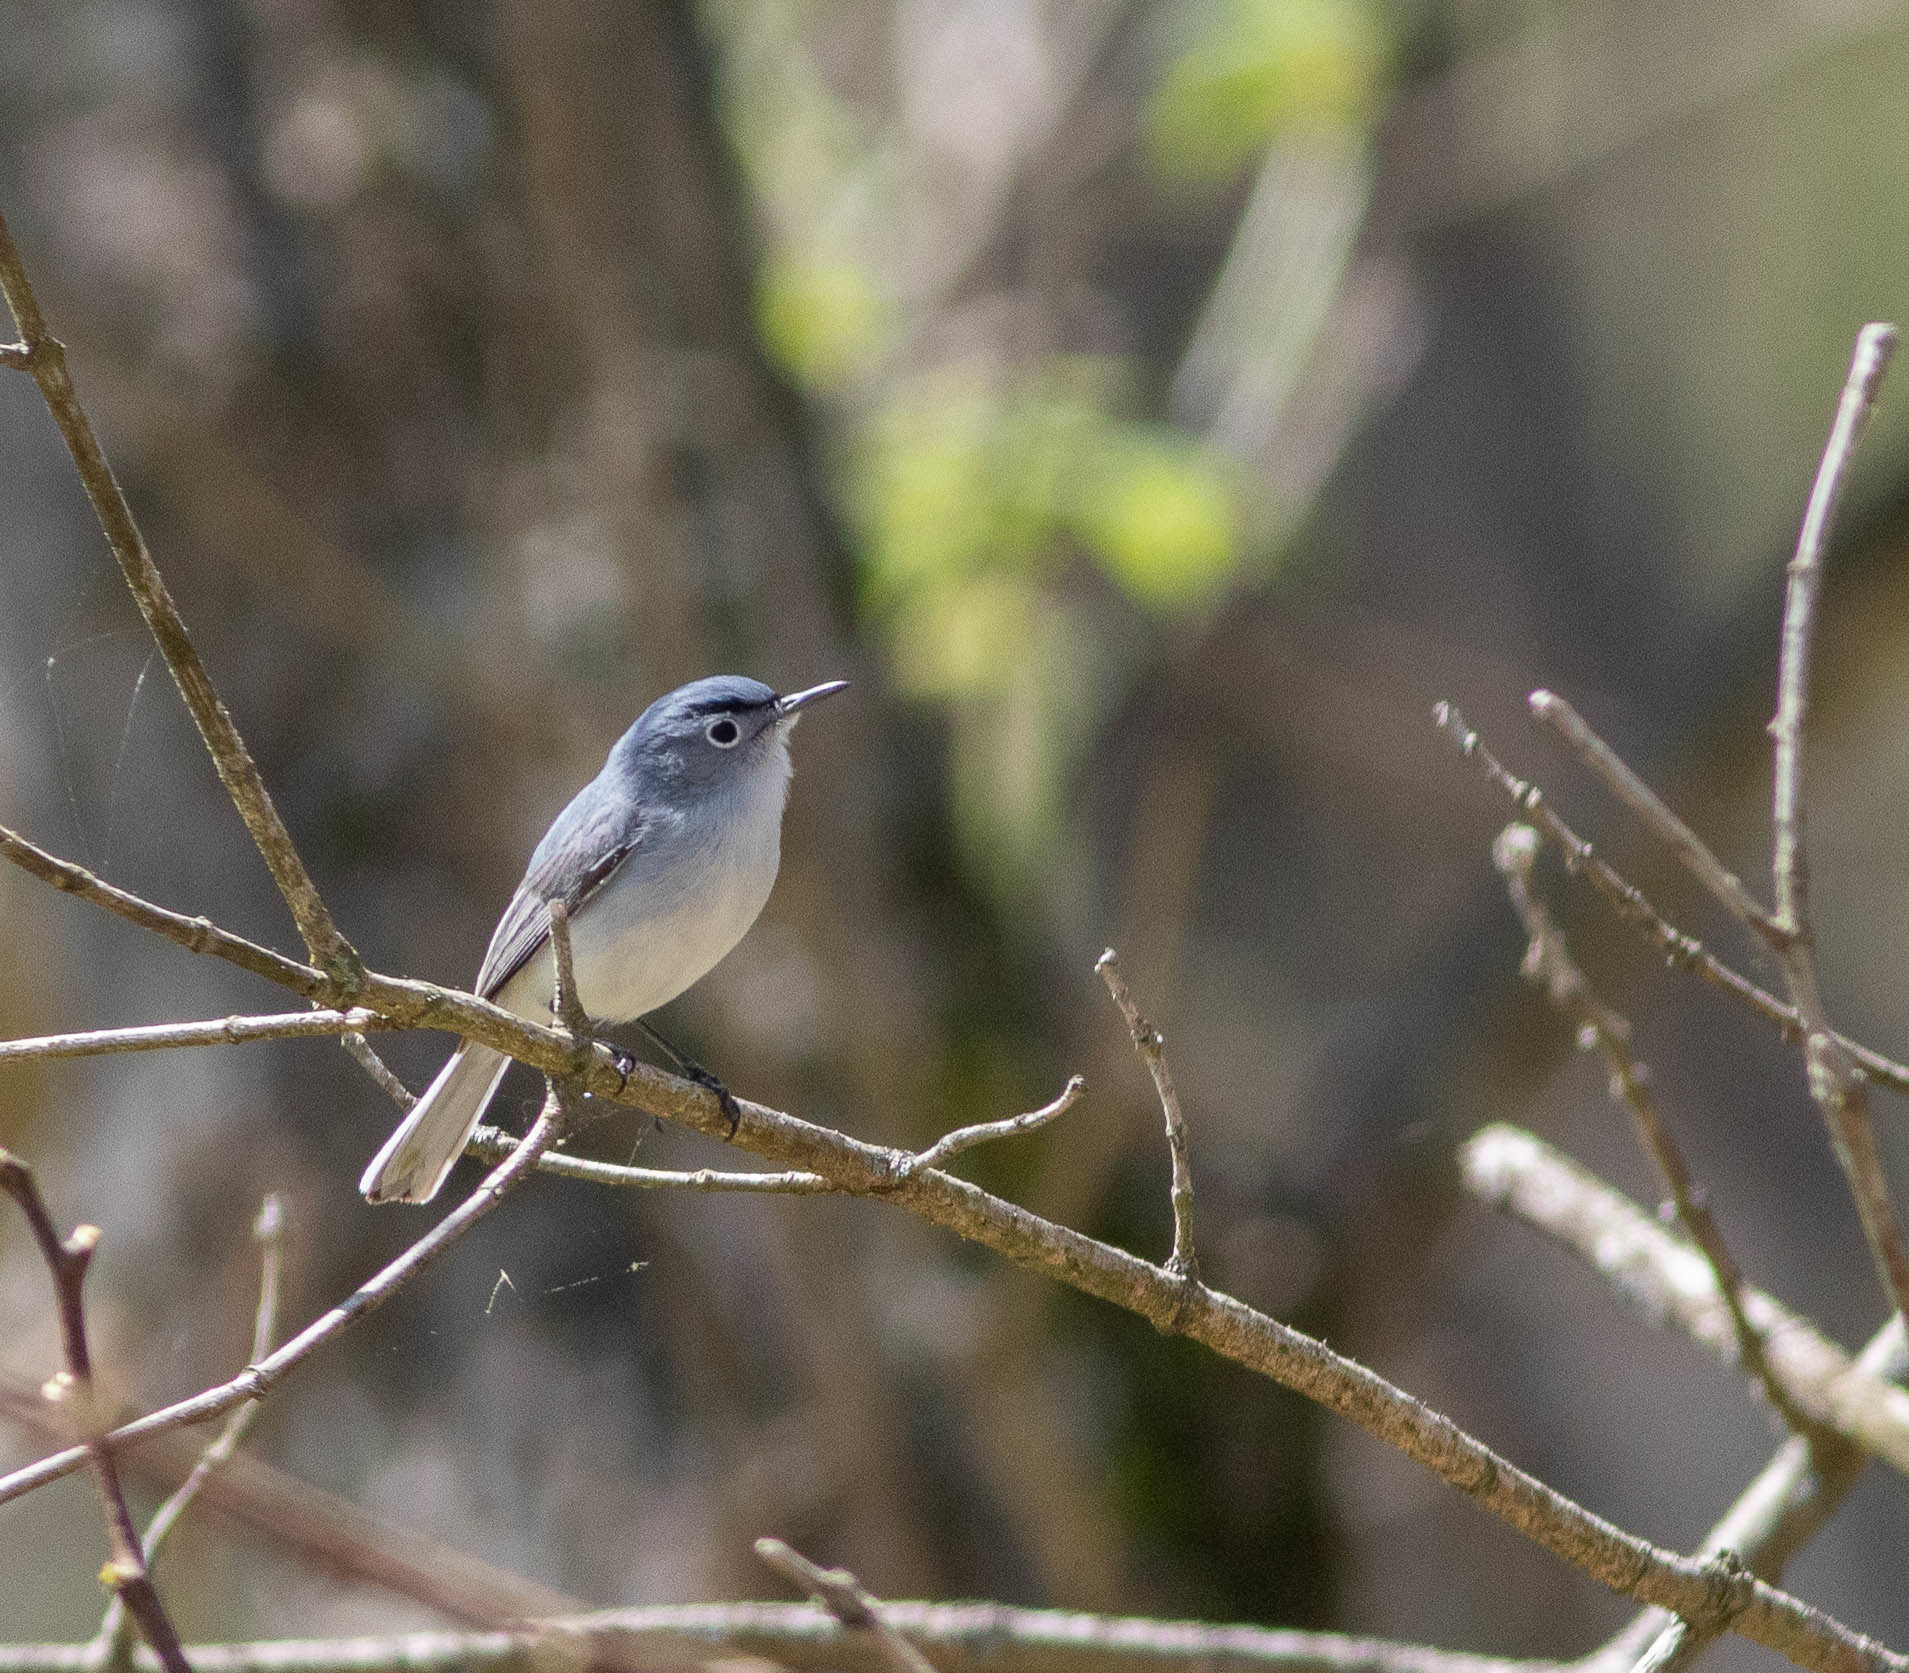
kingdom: Animalia
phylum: Chordata
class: Aves
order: Passeriformes
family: Polioptilidae
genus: Polioptila
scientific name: Polioptila caerulea
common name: Blue-gray gnatcatcher
